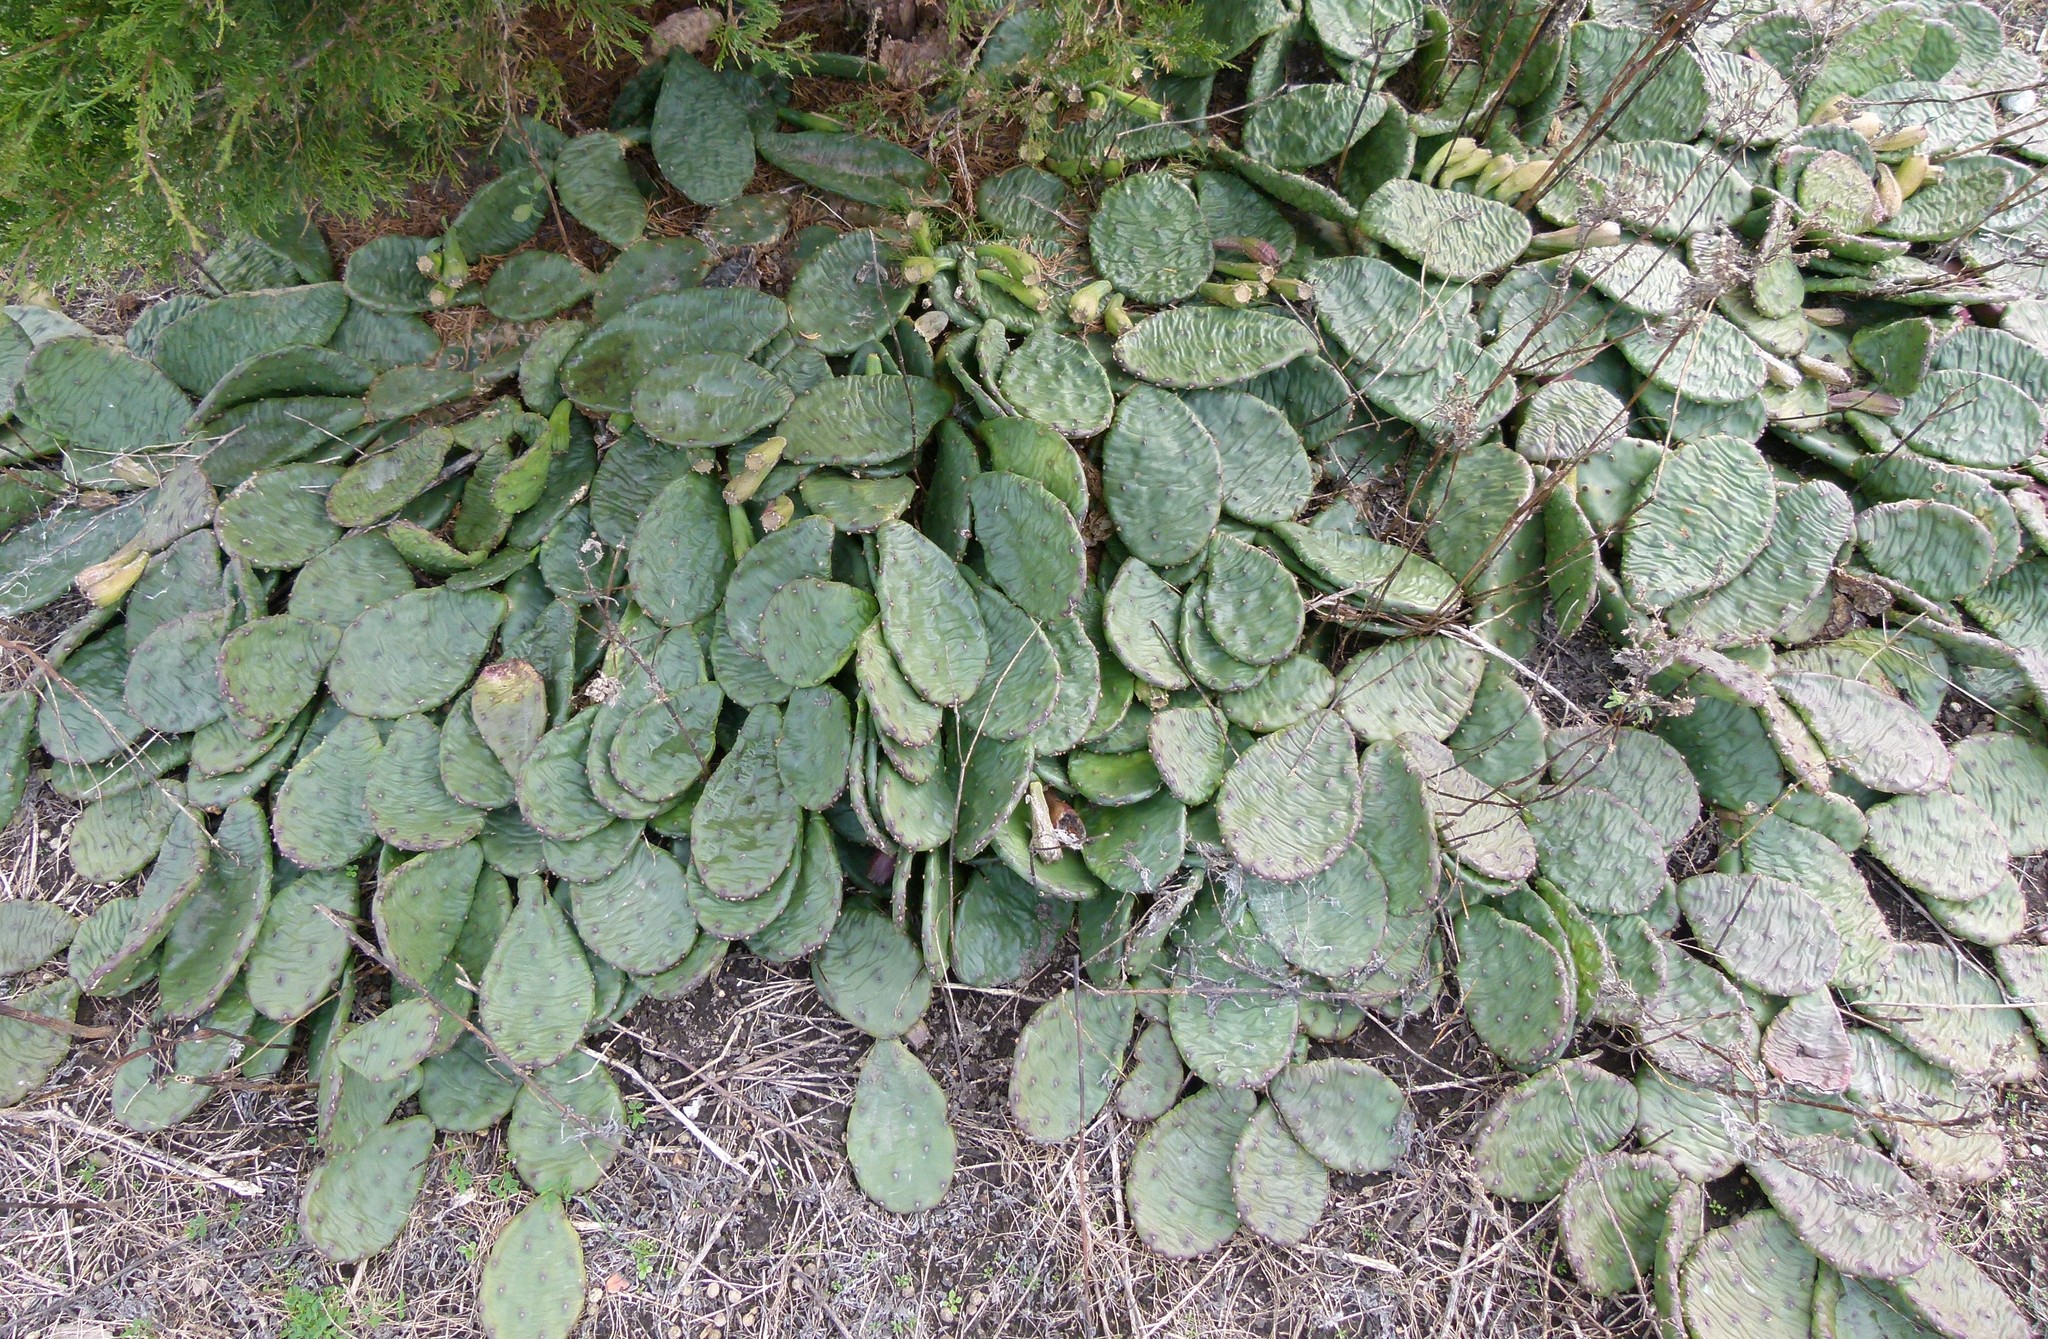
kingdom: Plantae
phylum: Tracheophyta
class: Magnoliopsida
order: Caryophyllales
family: Cactaceae
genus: Opuntia
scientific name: Opuntia humifusa
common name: Eastern prickly-pear
